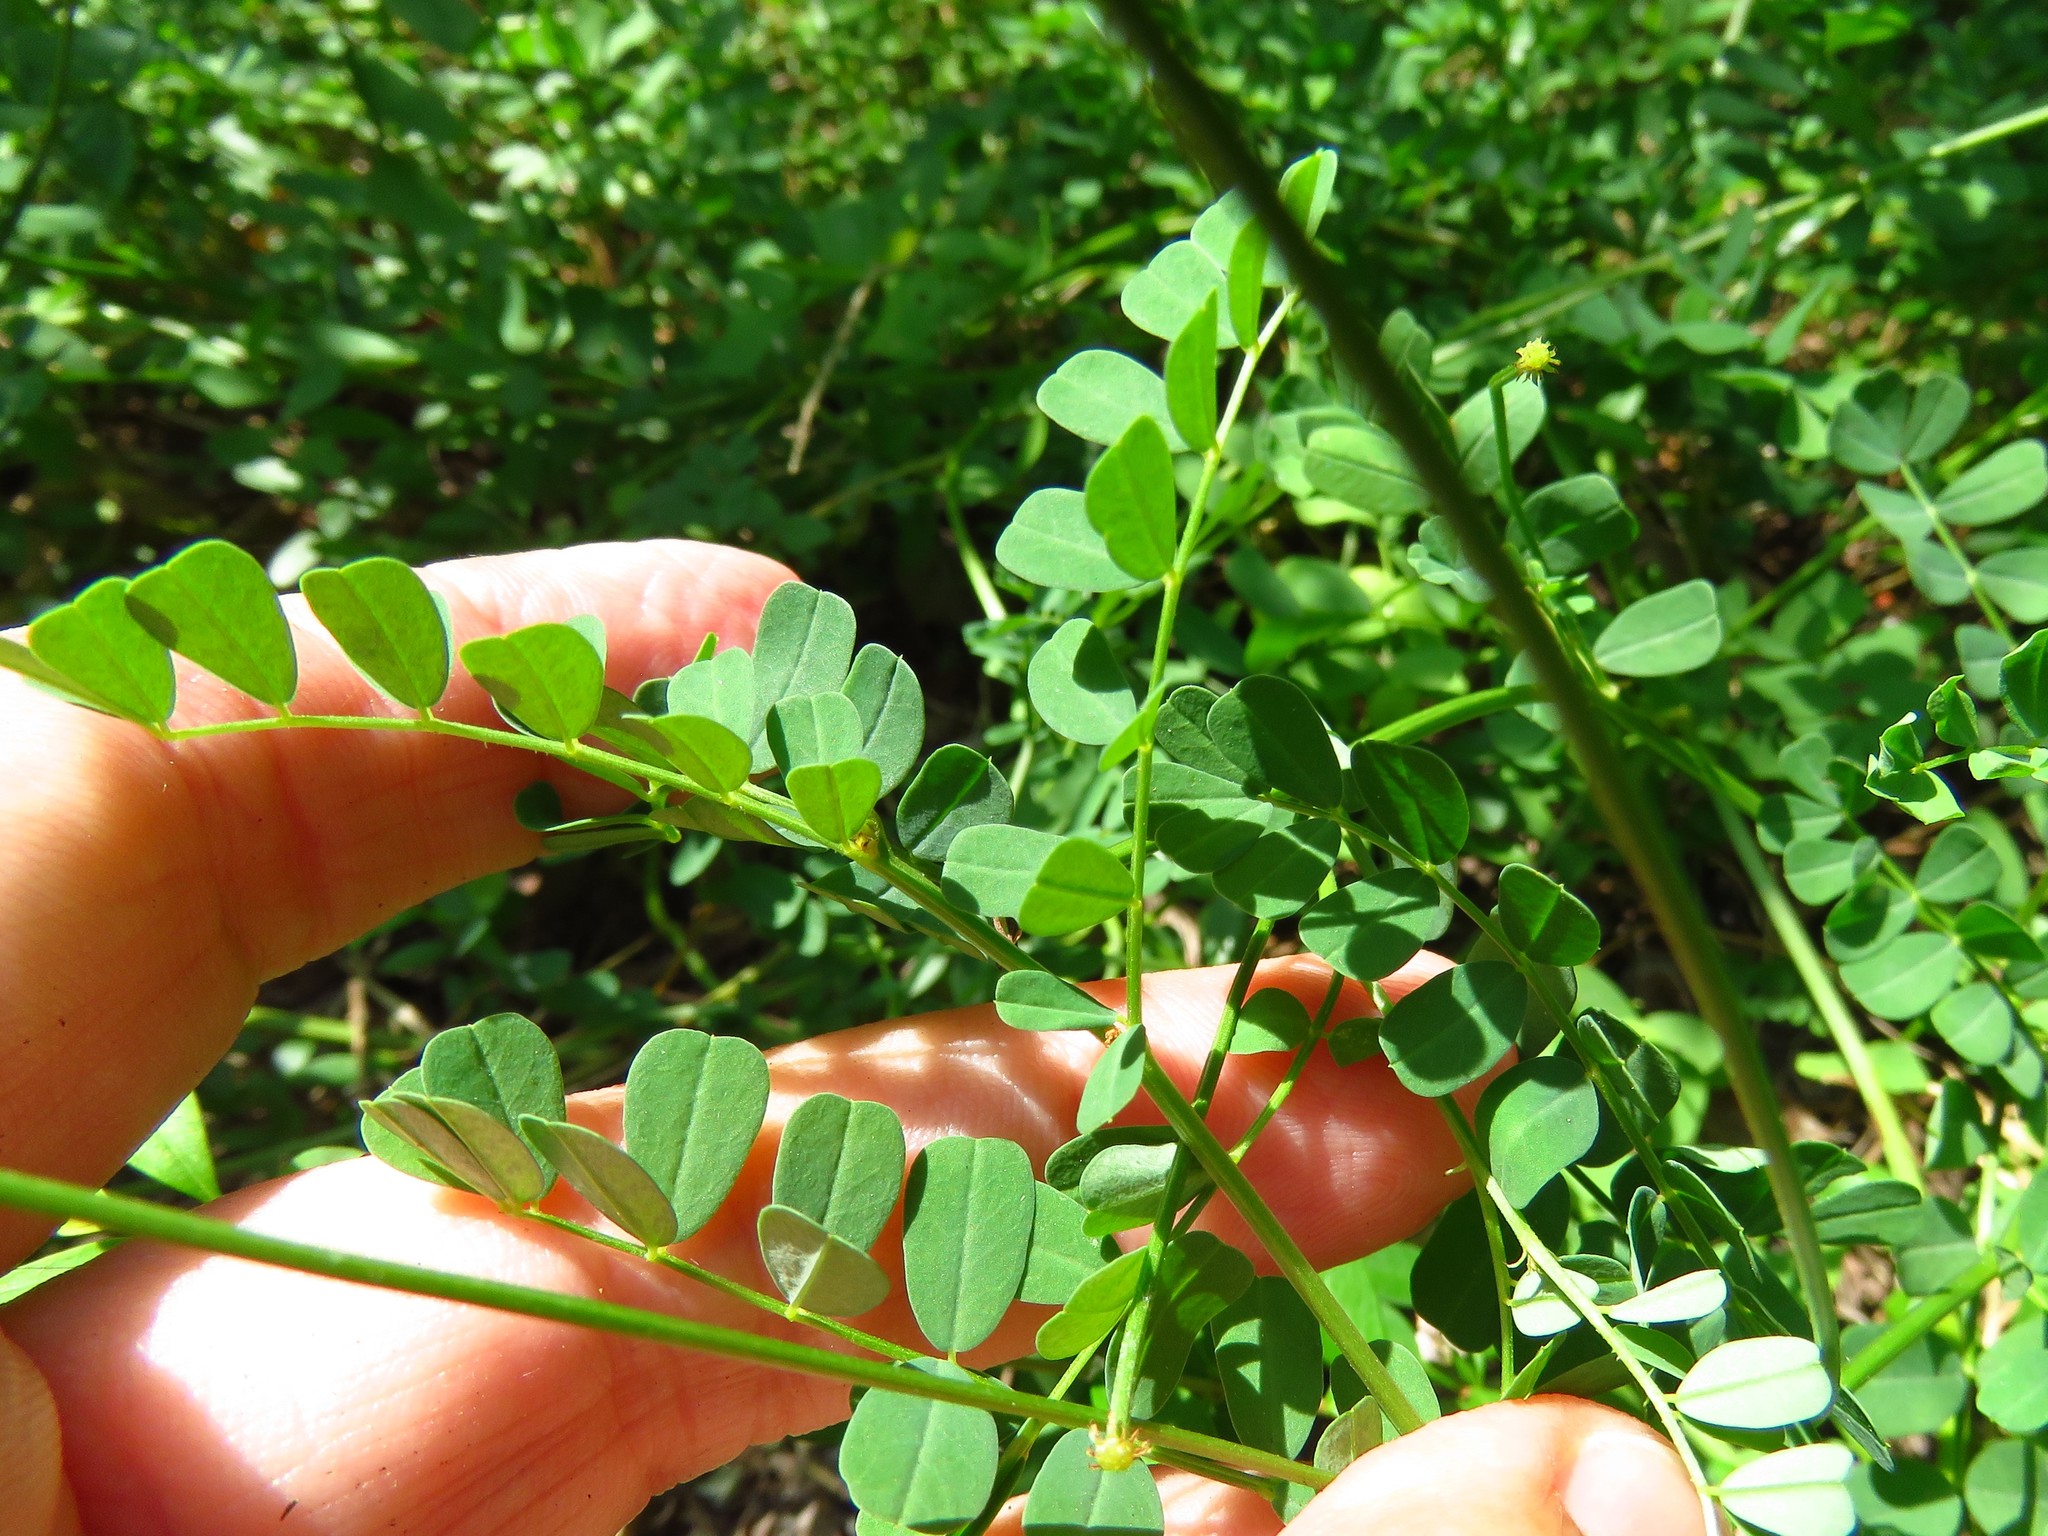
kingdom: Plantae
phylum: Tracheophyta
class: Magnoliopsida
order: Fabales
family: Fabaceae
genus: Coronilla
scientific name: Coronilla varia
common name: Crownvetch
